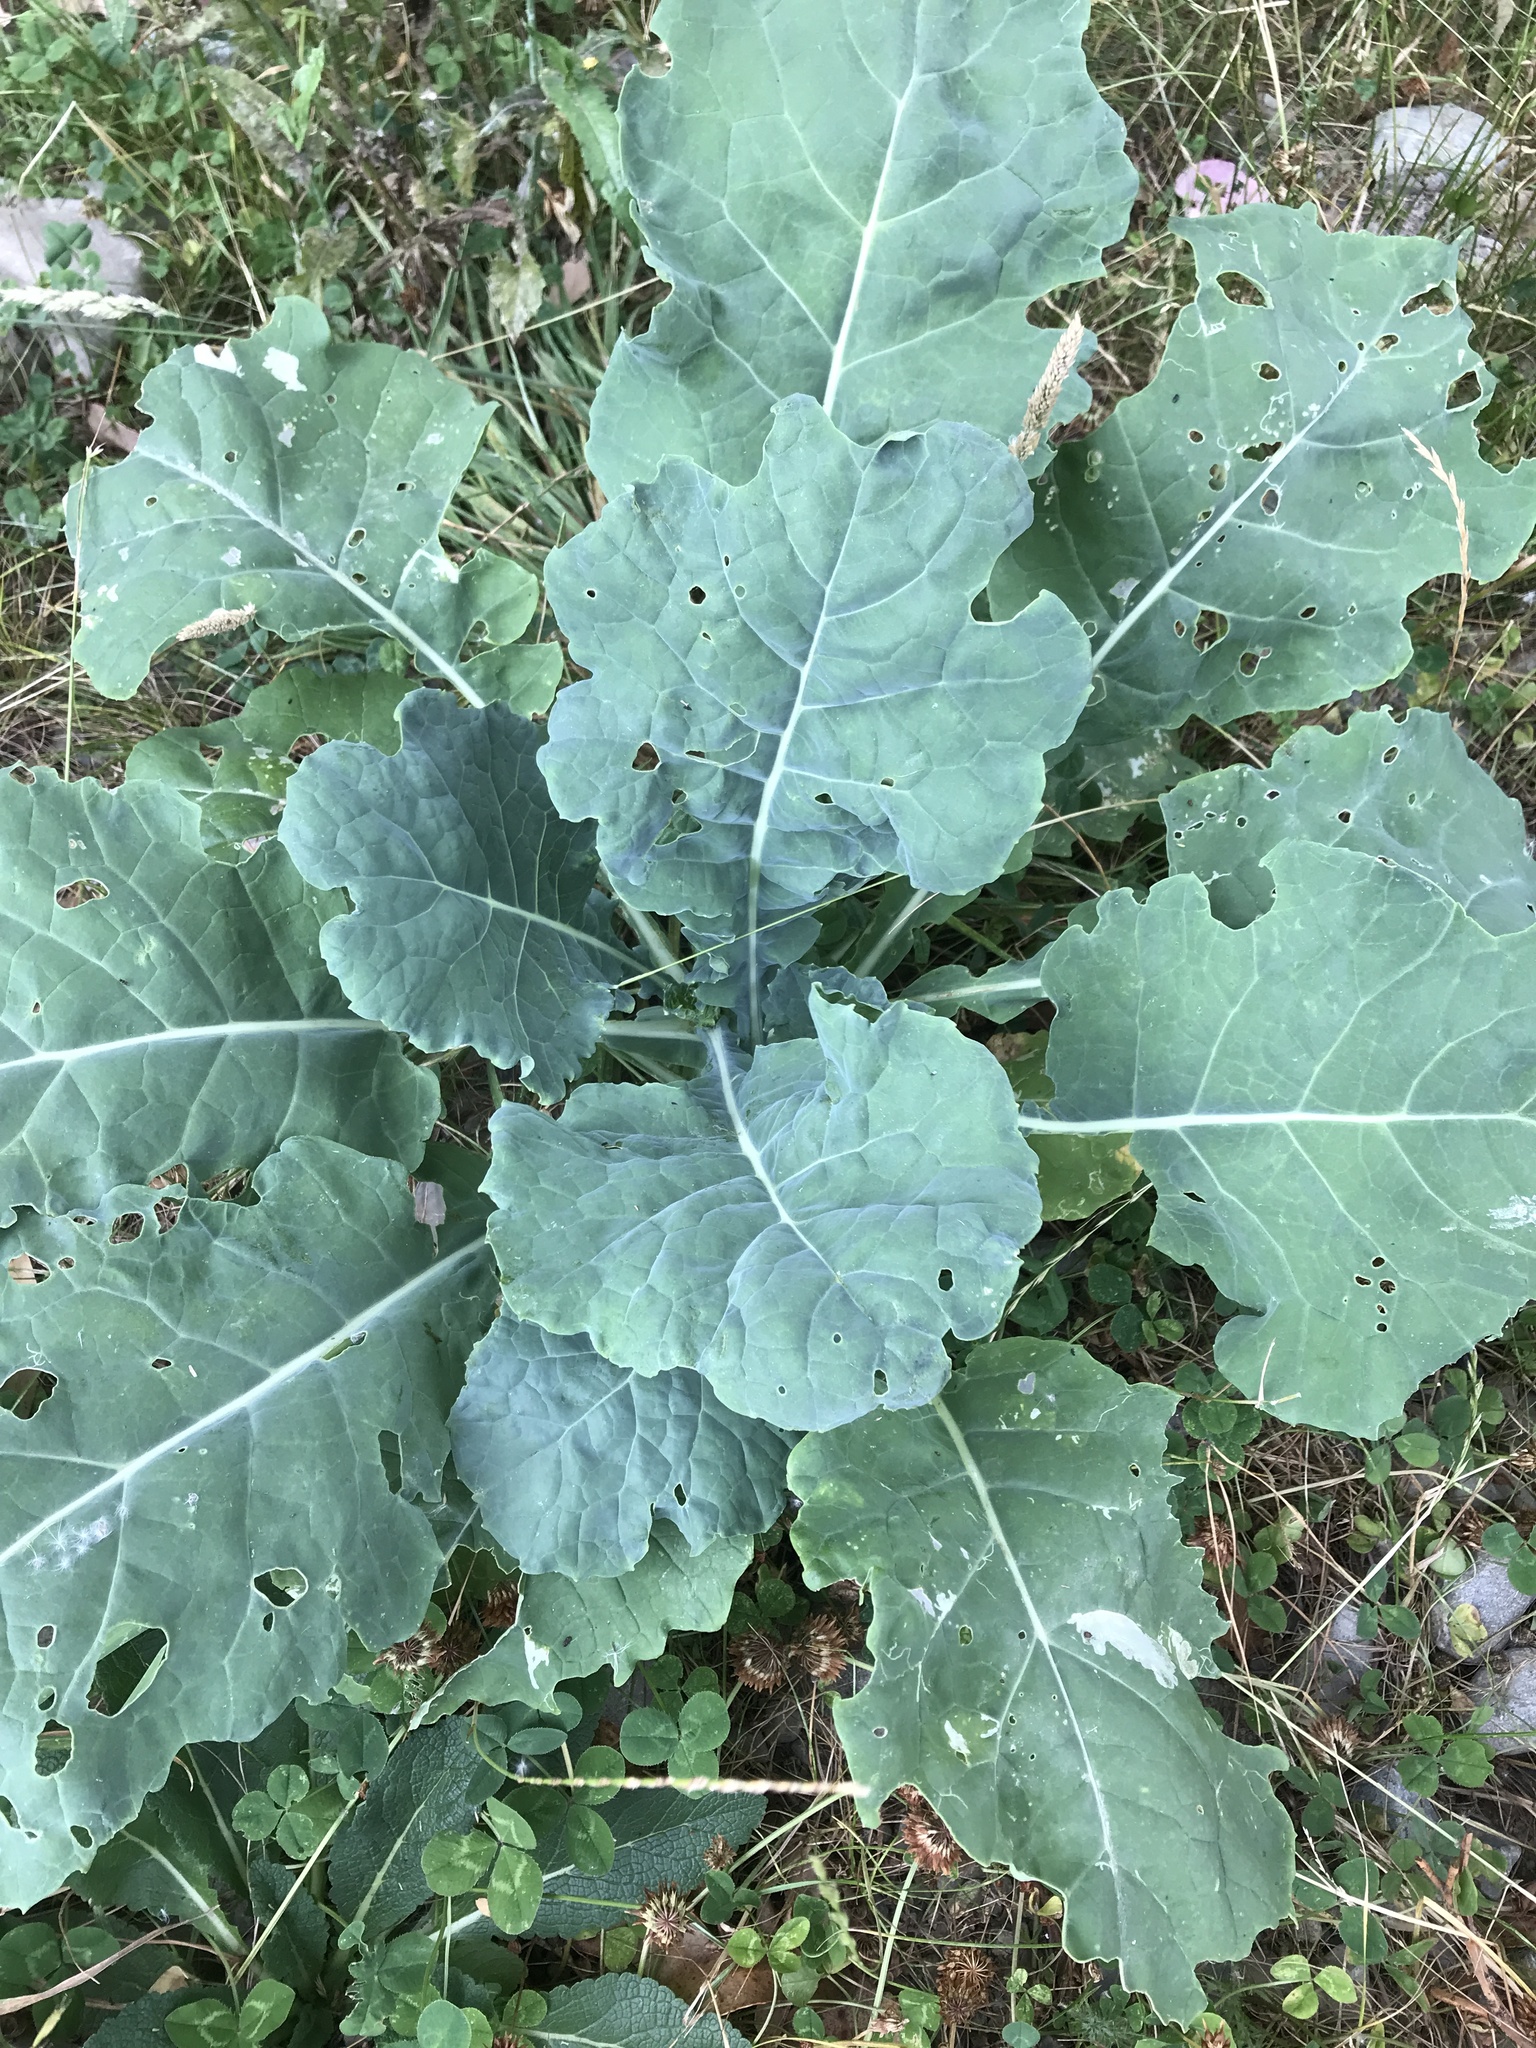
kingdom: Plantae
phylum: Tracheophyta
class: Magnoliopsida
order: Brassicales
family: Brassicaceae
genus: Brassica
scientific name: Brassica oleracea
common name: Cabbage
